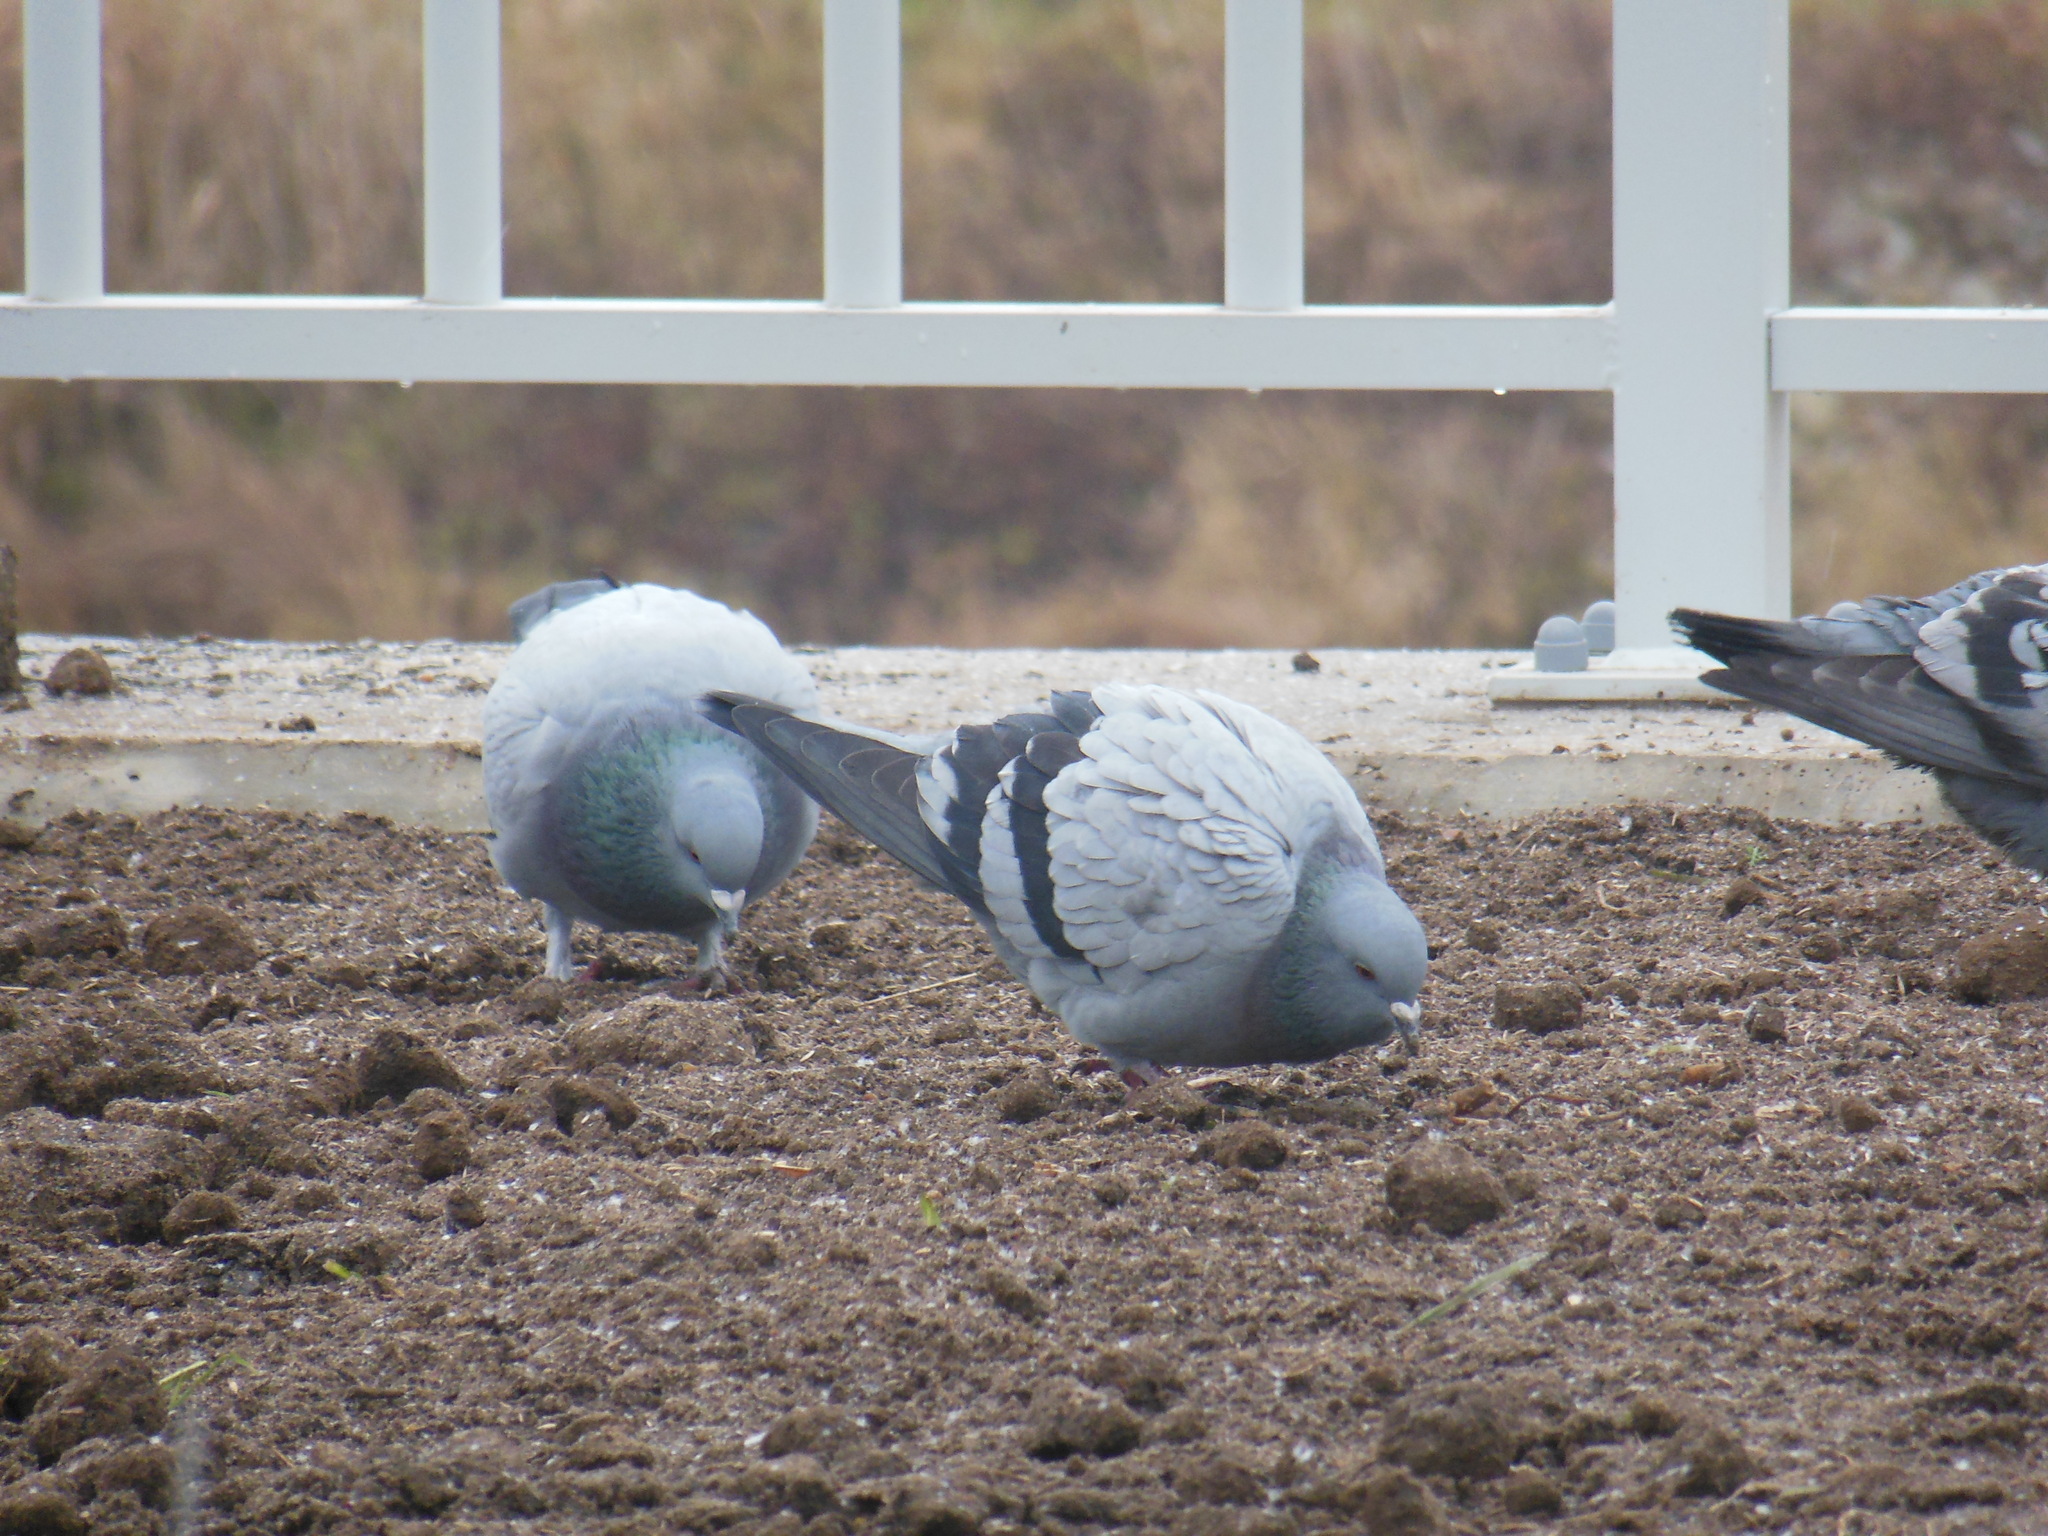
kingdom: Animalia
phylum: Chordata
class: Aves
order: Columbiformes
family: Columbidae
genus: Columba
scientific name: Columba livia
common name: Rock pigeon
